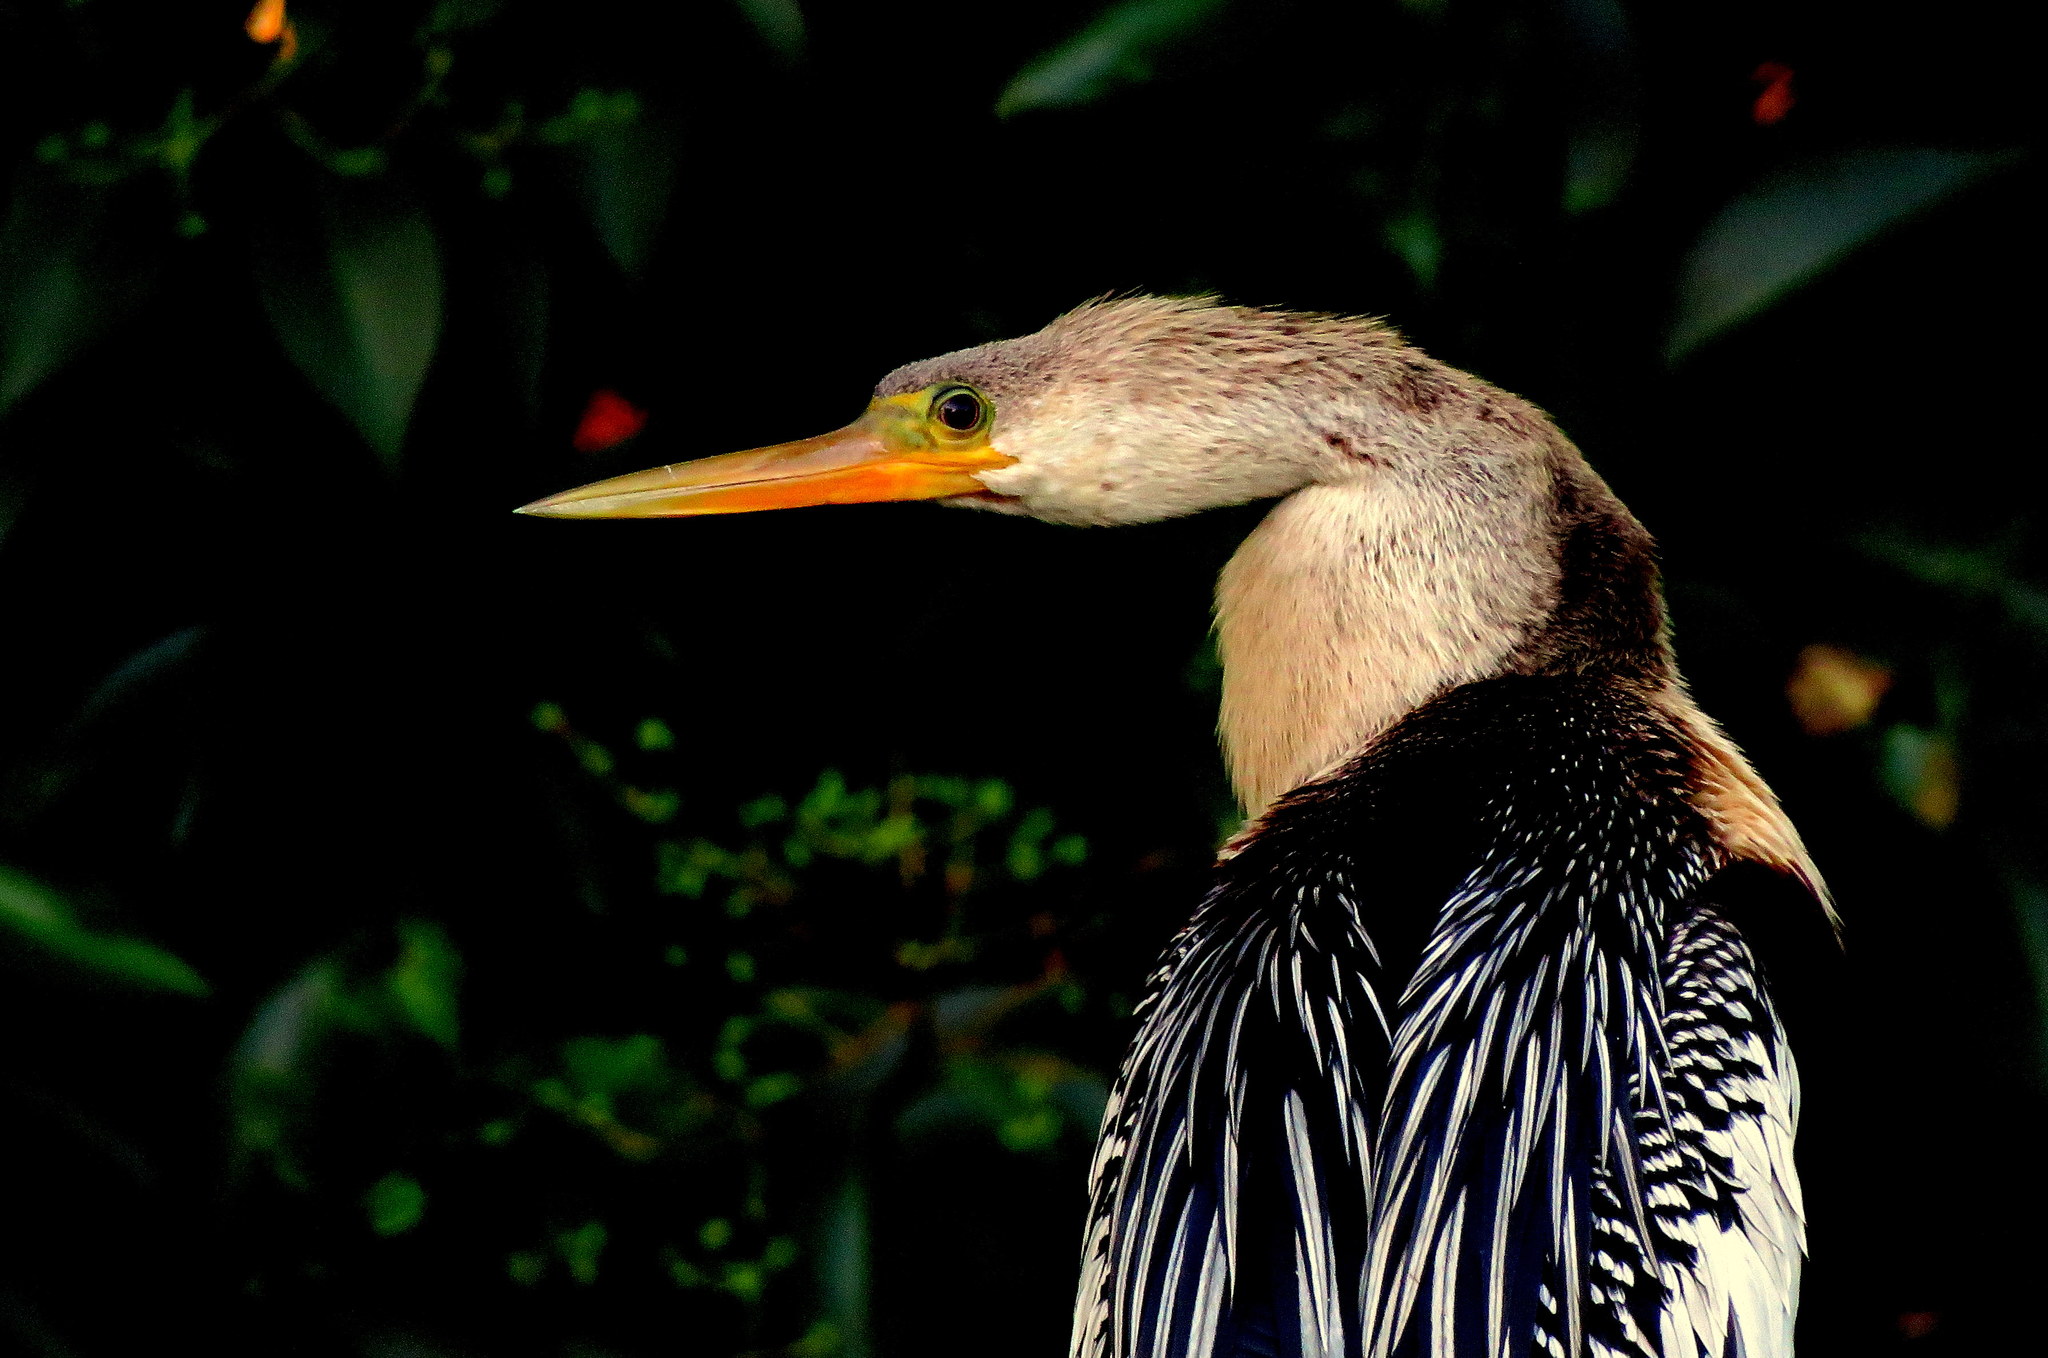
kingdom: Animalia
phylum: Chordata
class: Aves
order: Suliformes
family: Anhingidae
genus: Anhinga
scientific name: Anhinga anhinga
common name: Anhinga
